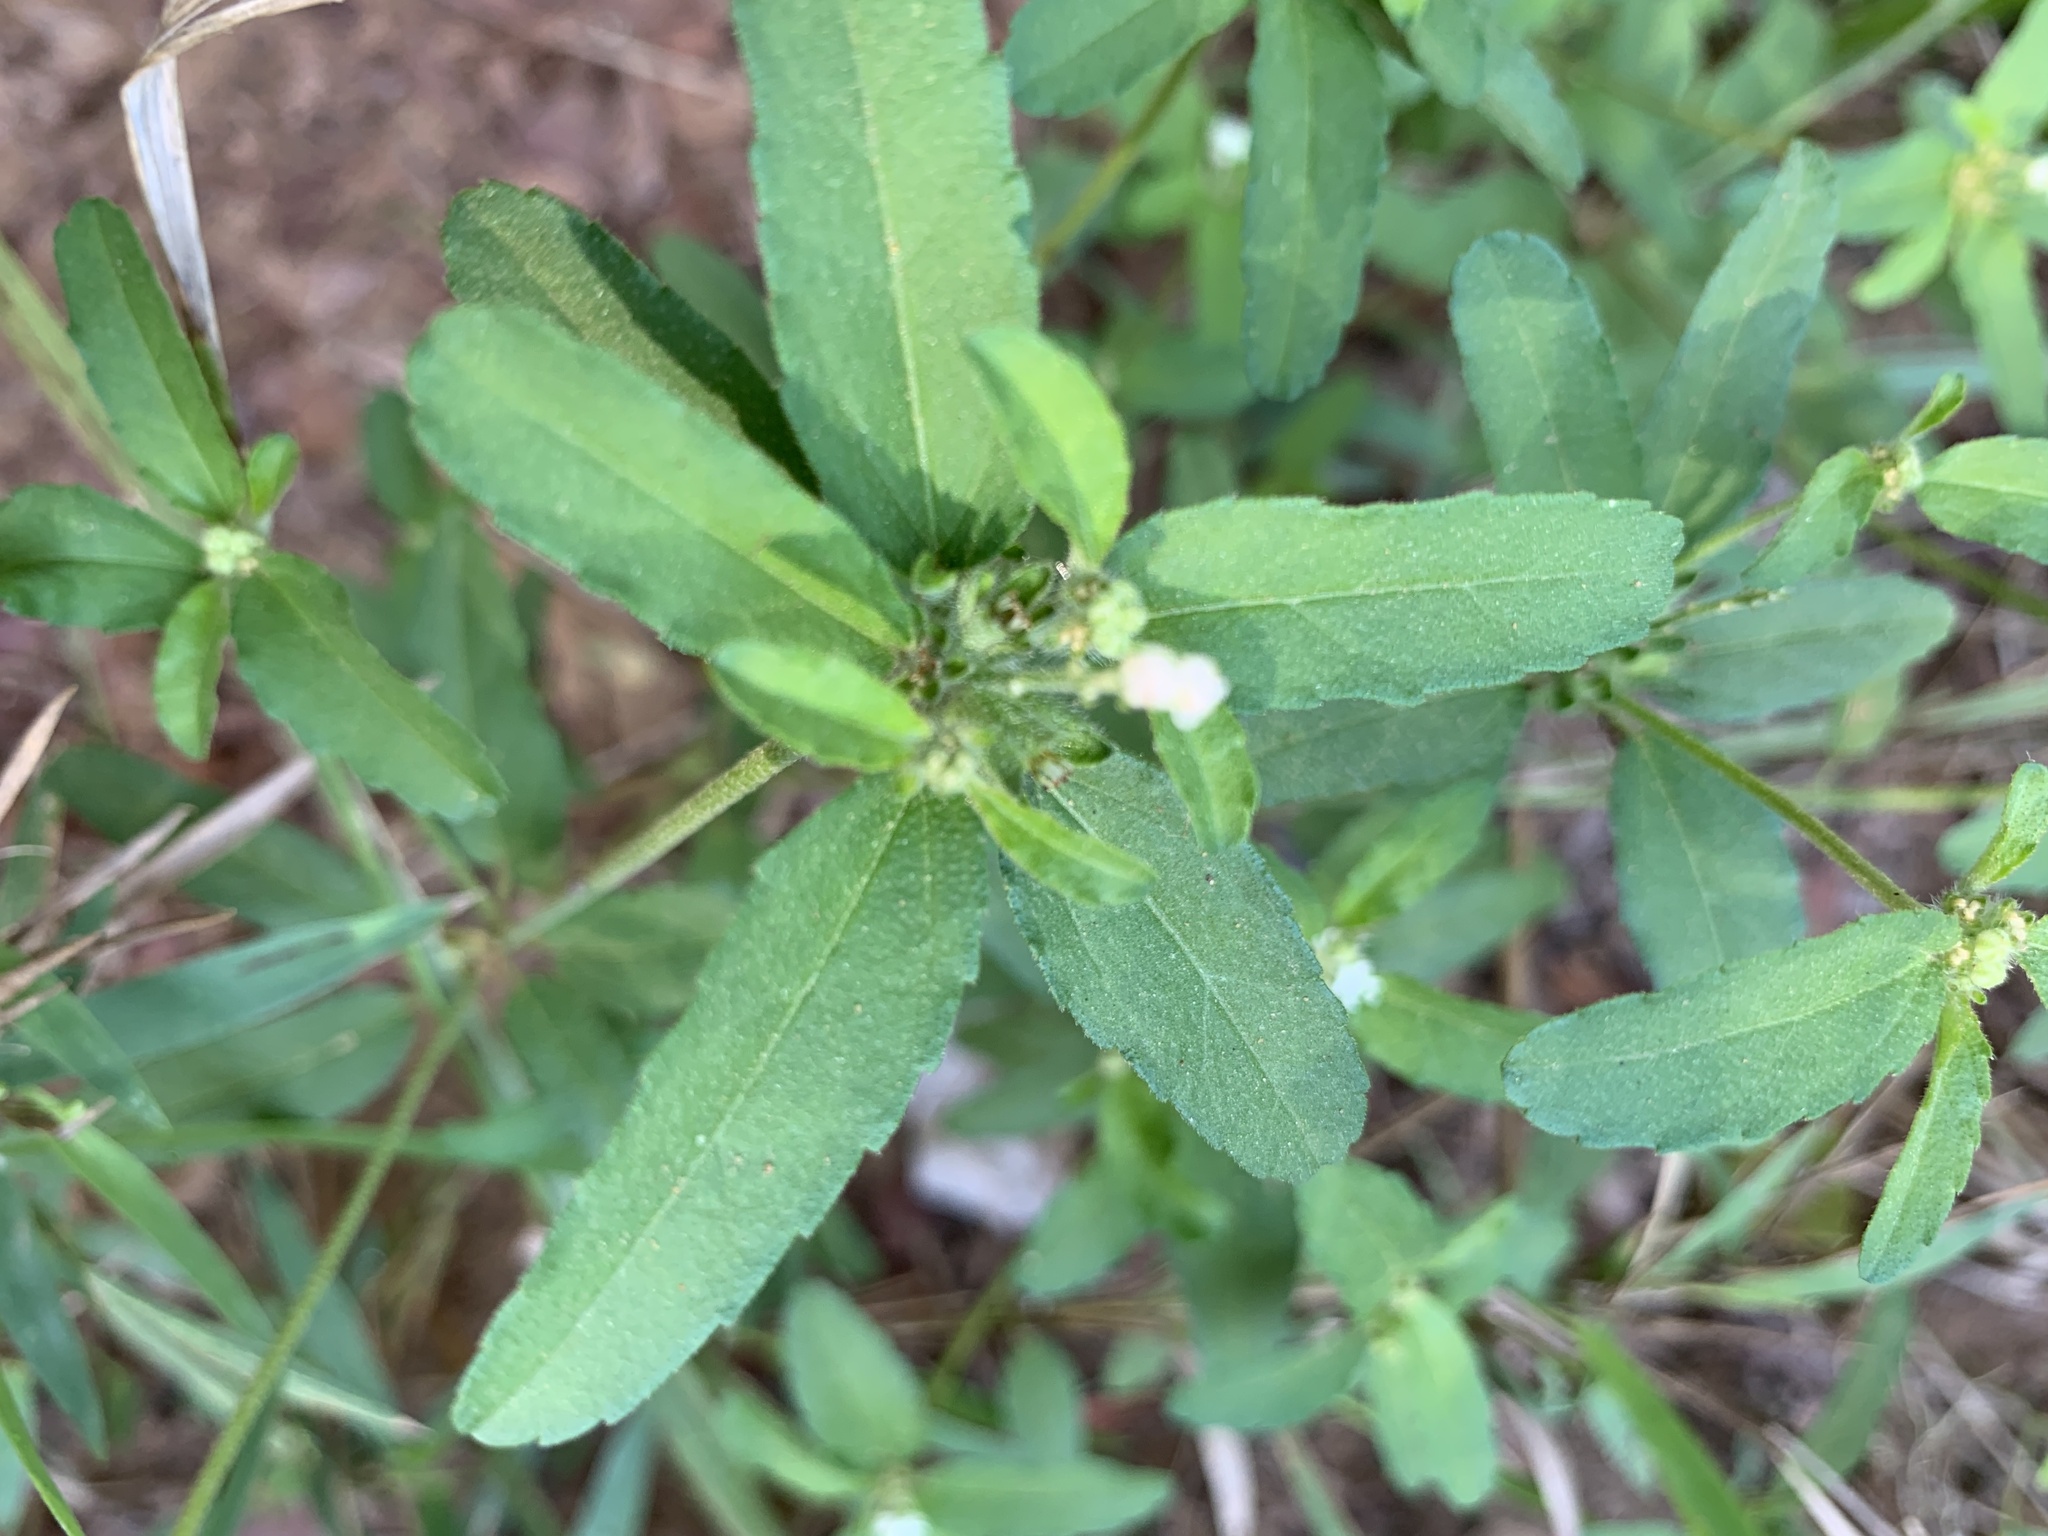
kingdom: Plantae
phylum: Tracheophyta
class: Magnoliopsida
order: Malpighiales
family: Euphorbiaceae
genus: Croton
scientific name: Croton glandulosus
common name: Tropic croton
